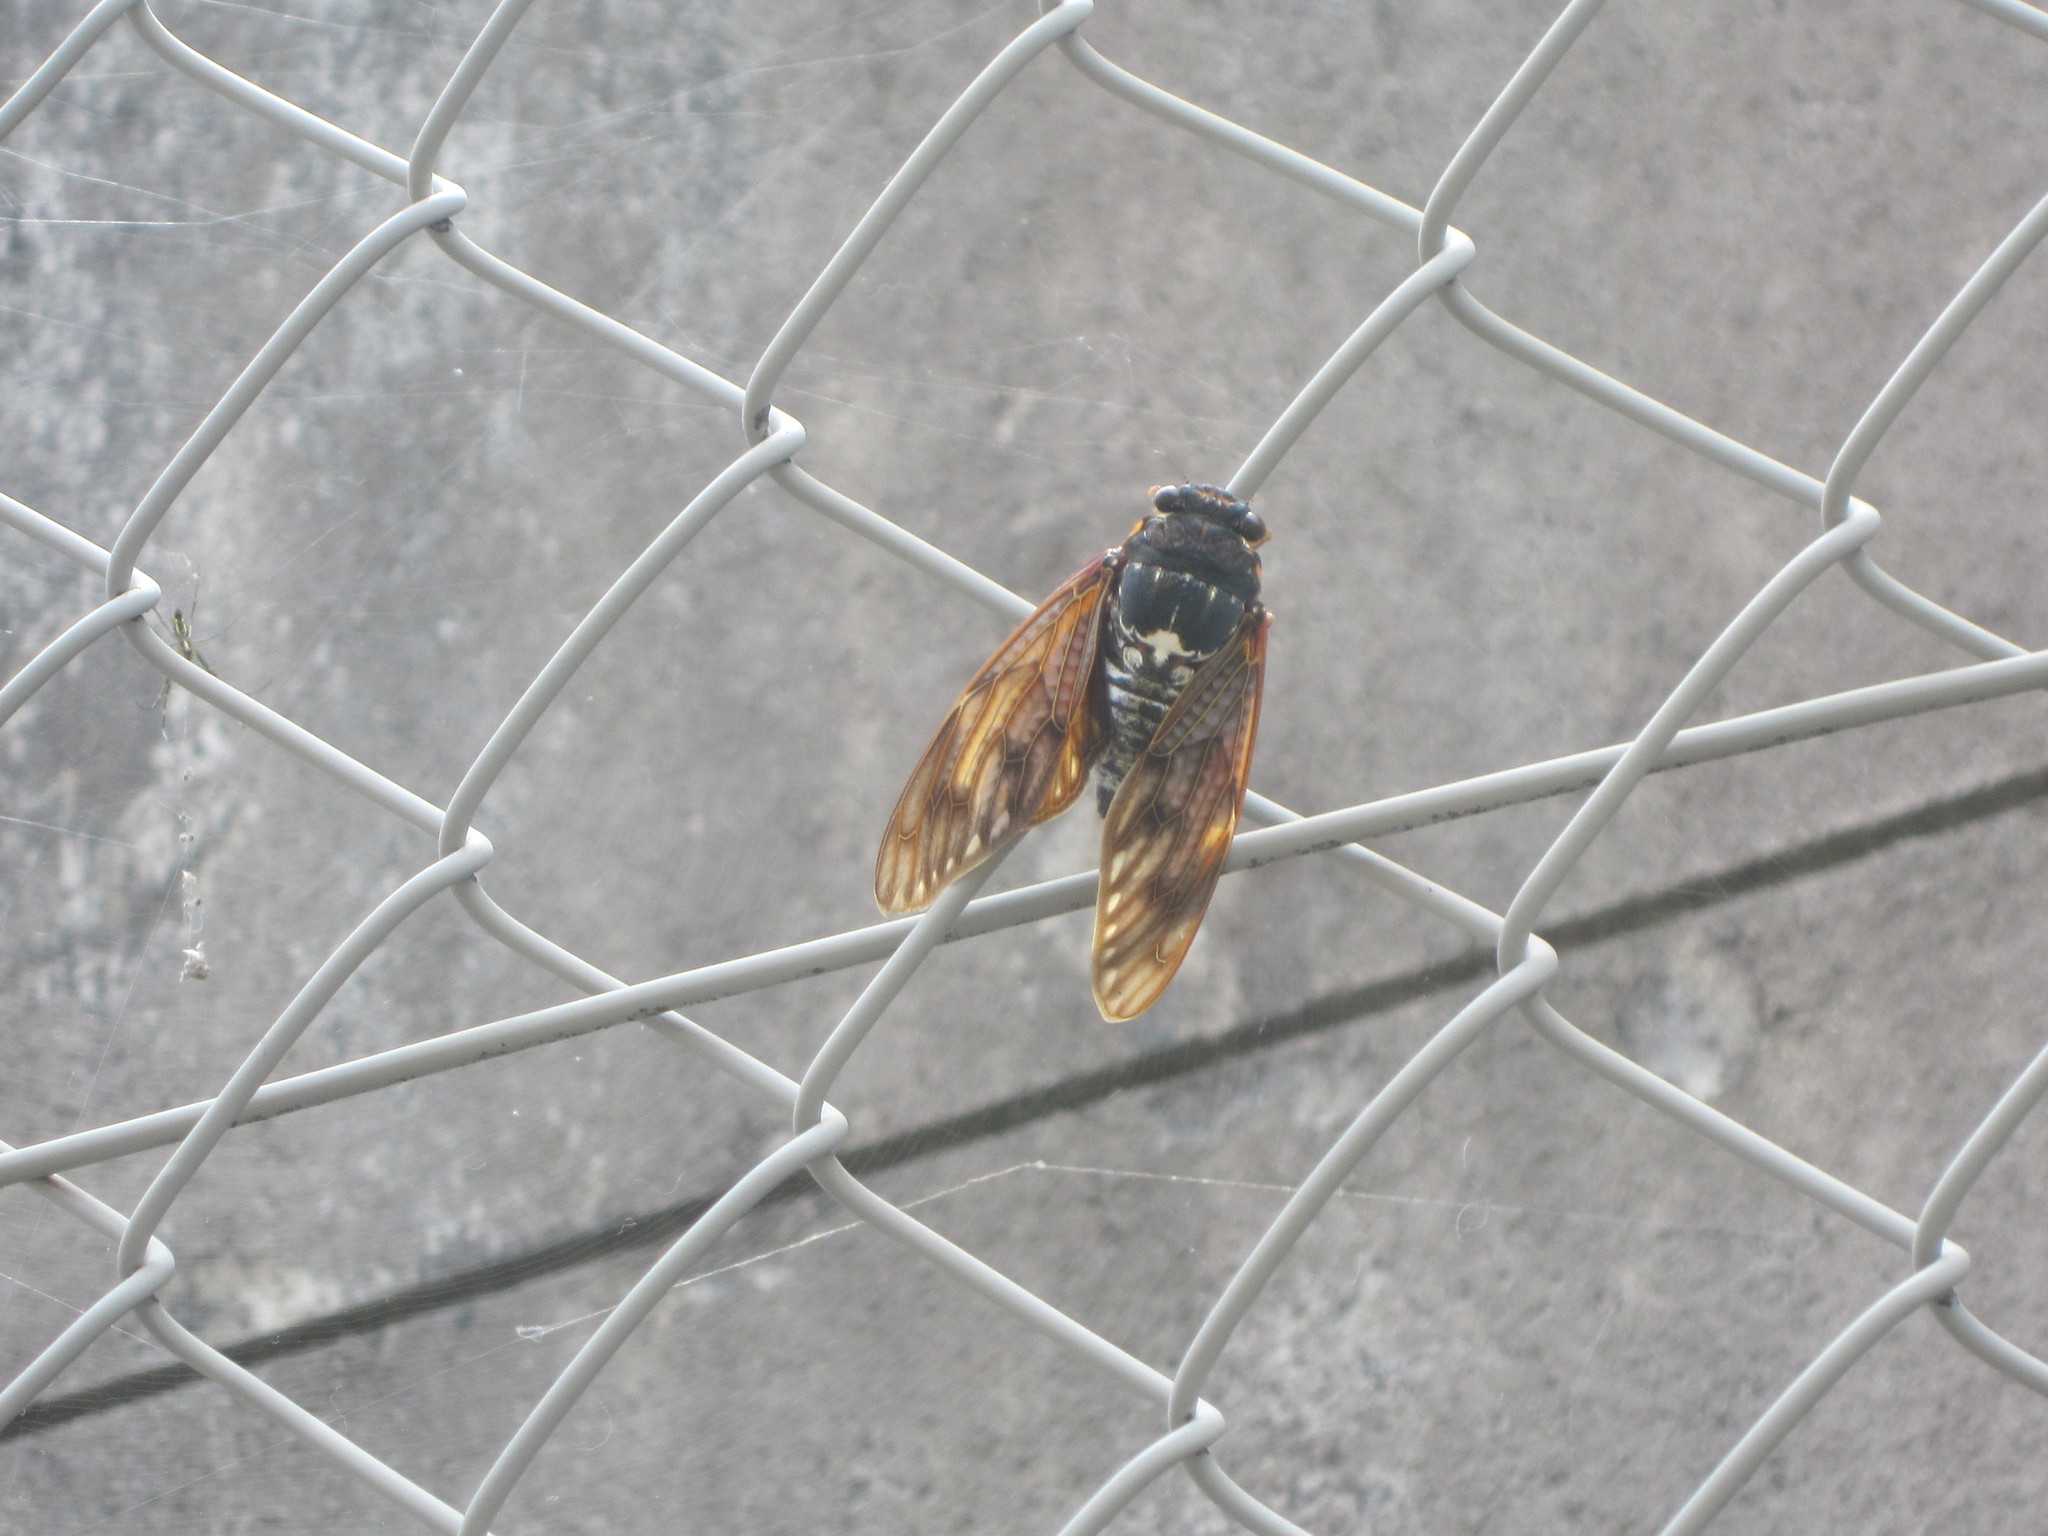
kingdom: Animalia
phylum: Arthropoda
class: Insecta
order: Hemiptera
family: Cicadidae
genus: Graptopsaltria
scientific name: Graptopsaltria nigrofuscata
